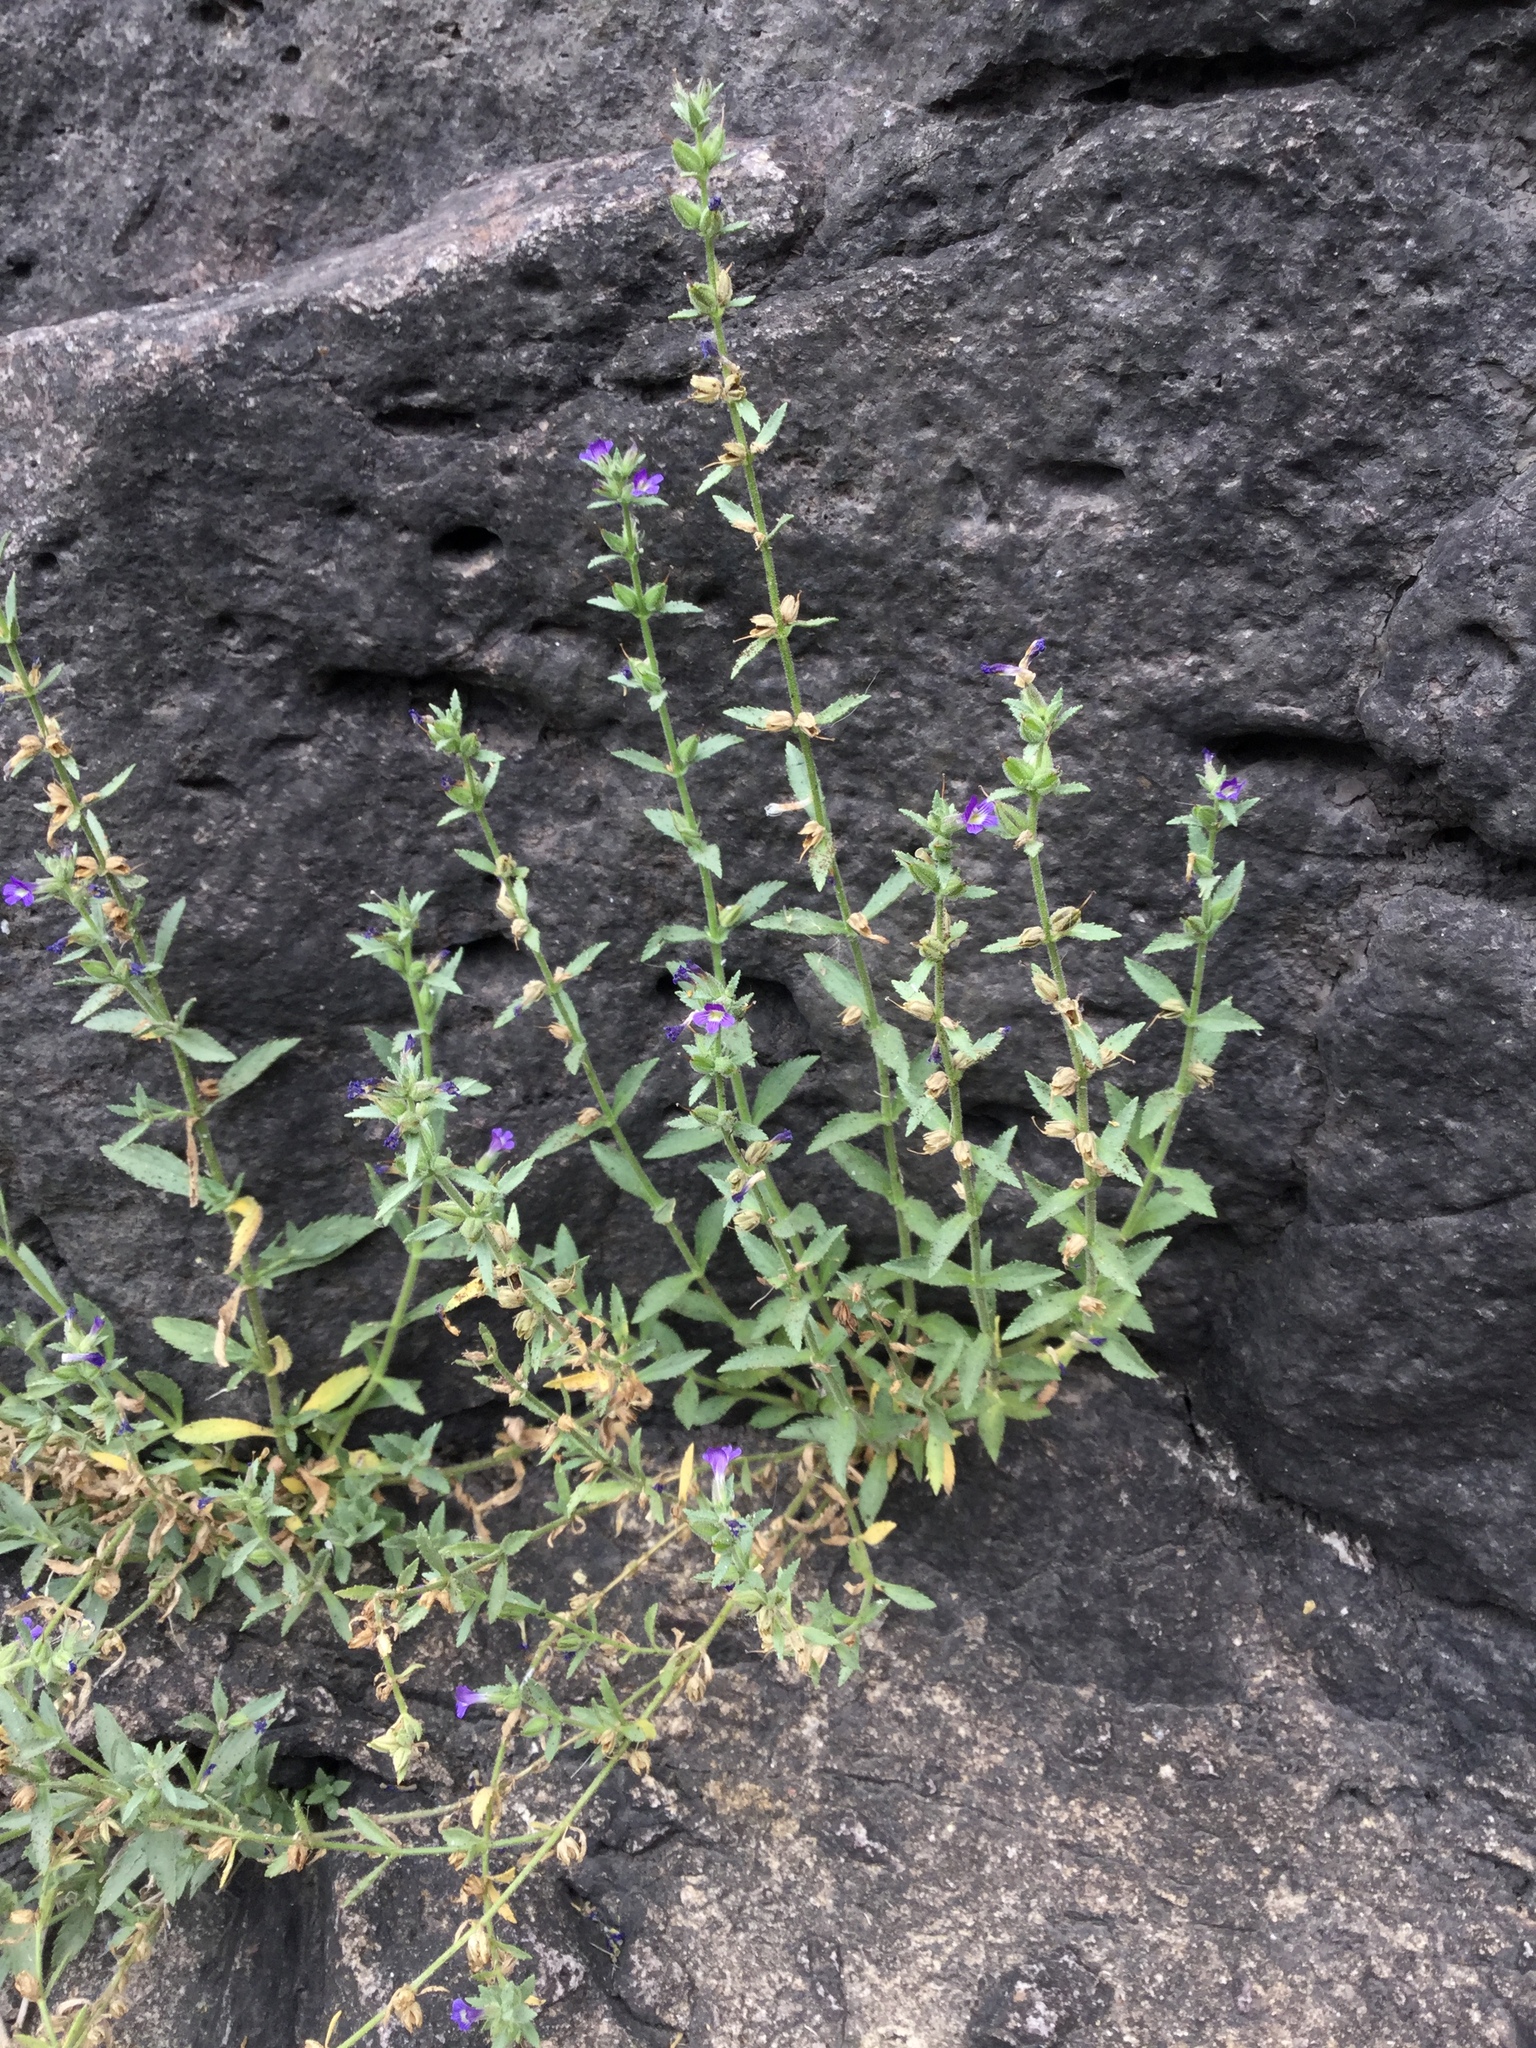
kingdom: Plantae
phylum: Tracheophyta
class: Magnoliopsida
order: Lamiales
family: Plantaginaceae
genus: Stemodia
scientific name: Stemodia durantifolia
